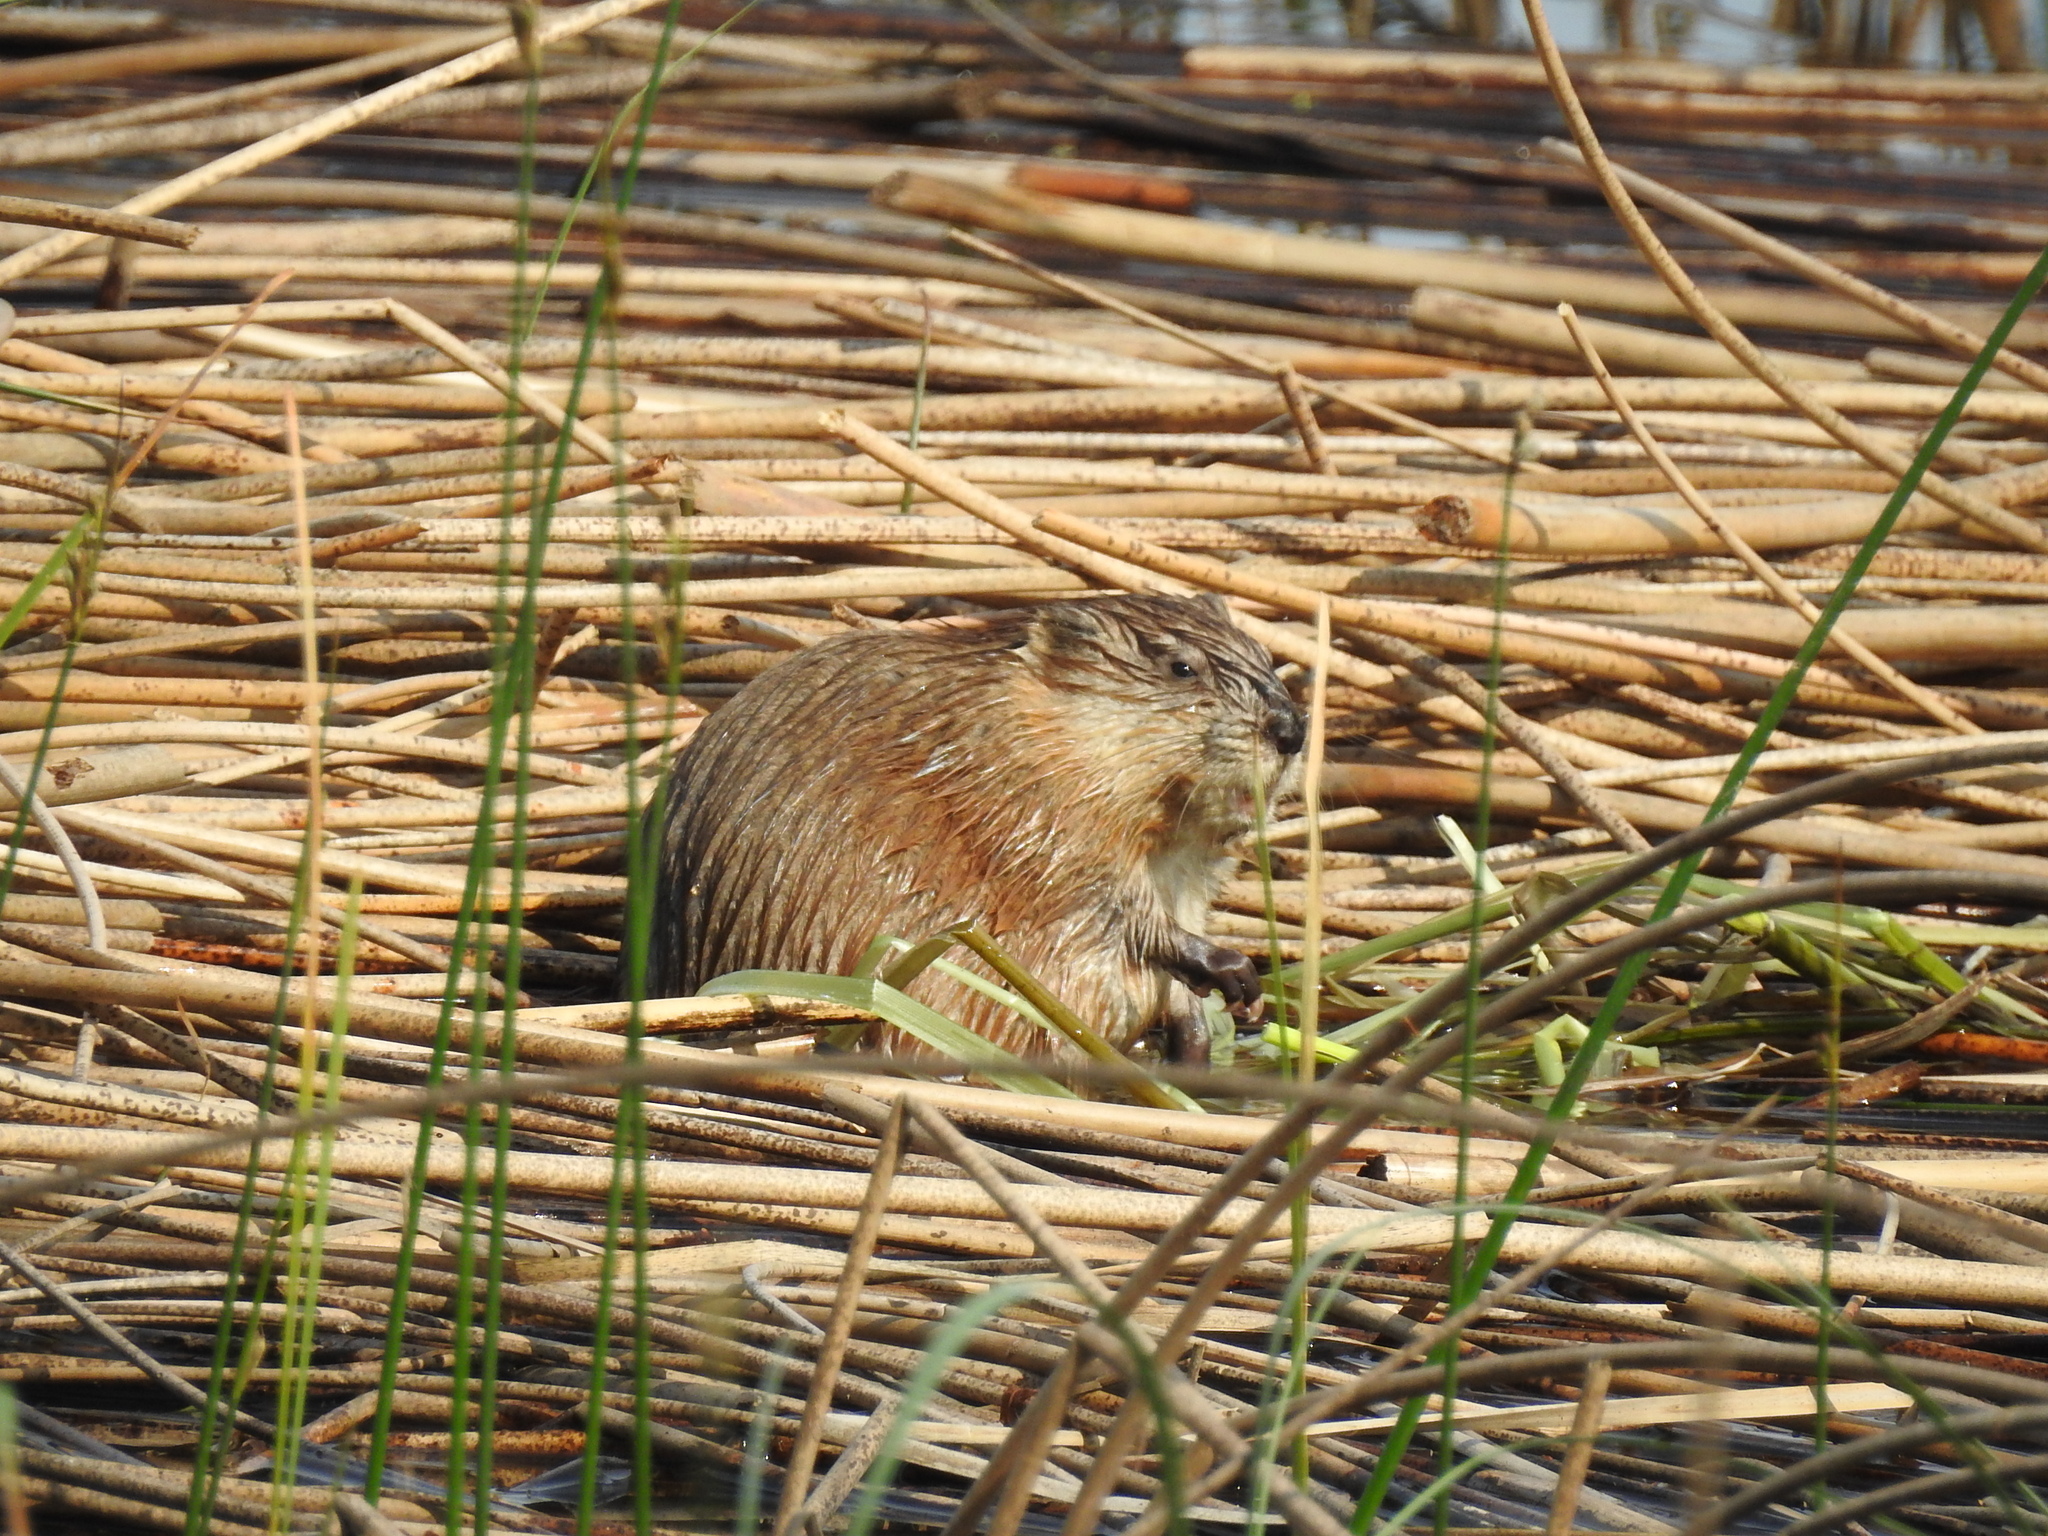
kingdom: Animalia
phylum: Chordata
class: Mammalia
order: Rodentia
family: Cricetidae
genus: Ondatra
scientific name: Ondatra zibethicus
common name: Muskrat
